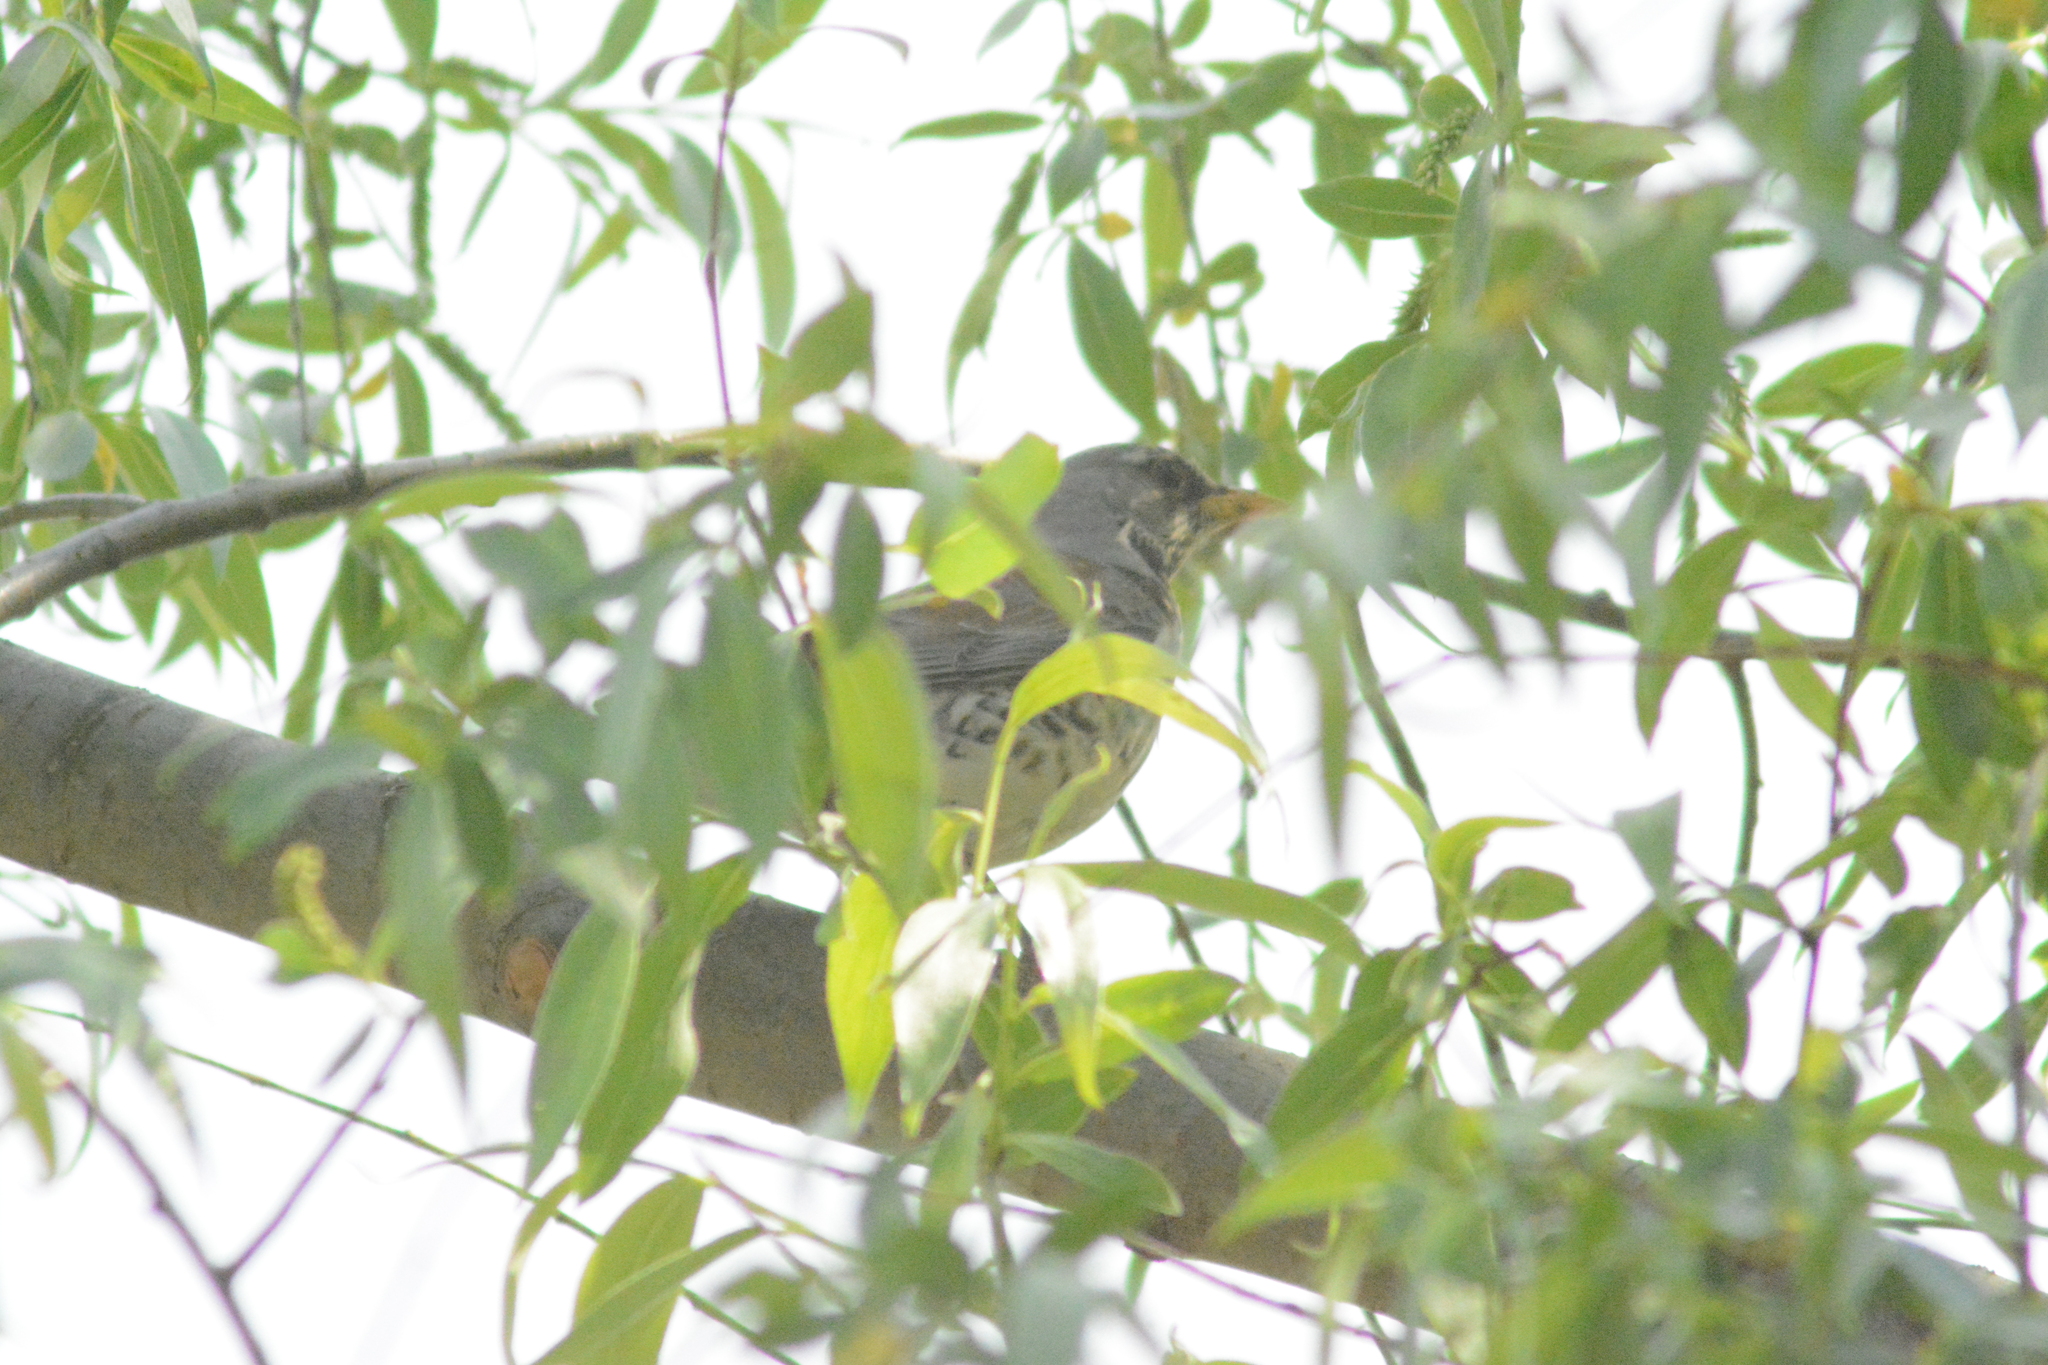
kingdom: Animalia
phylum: Chordata
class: Aves
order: Passeriformes
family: Turdidae
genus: Turdus
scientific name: Turdus pilaris
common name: Fieldfare
